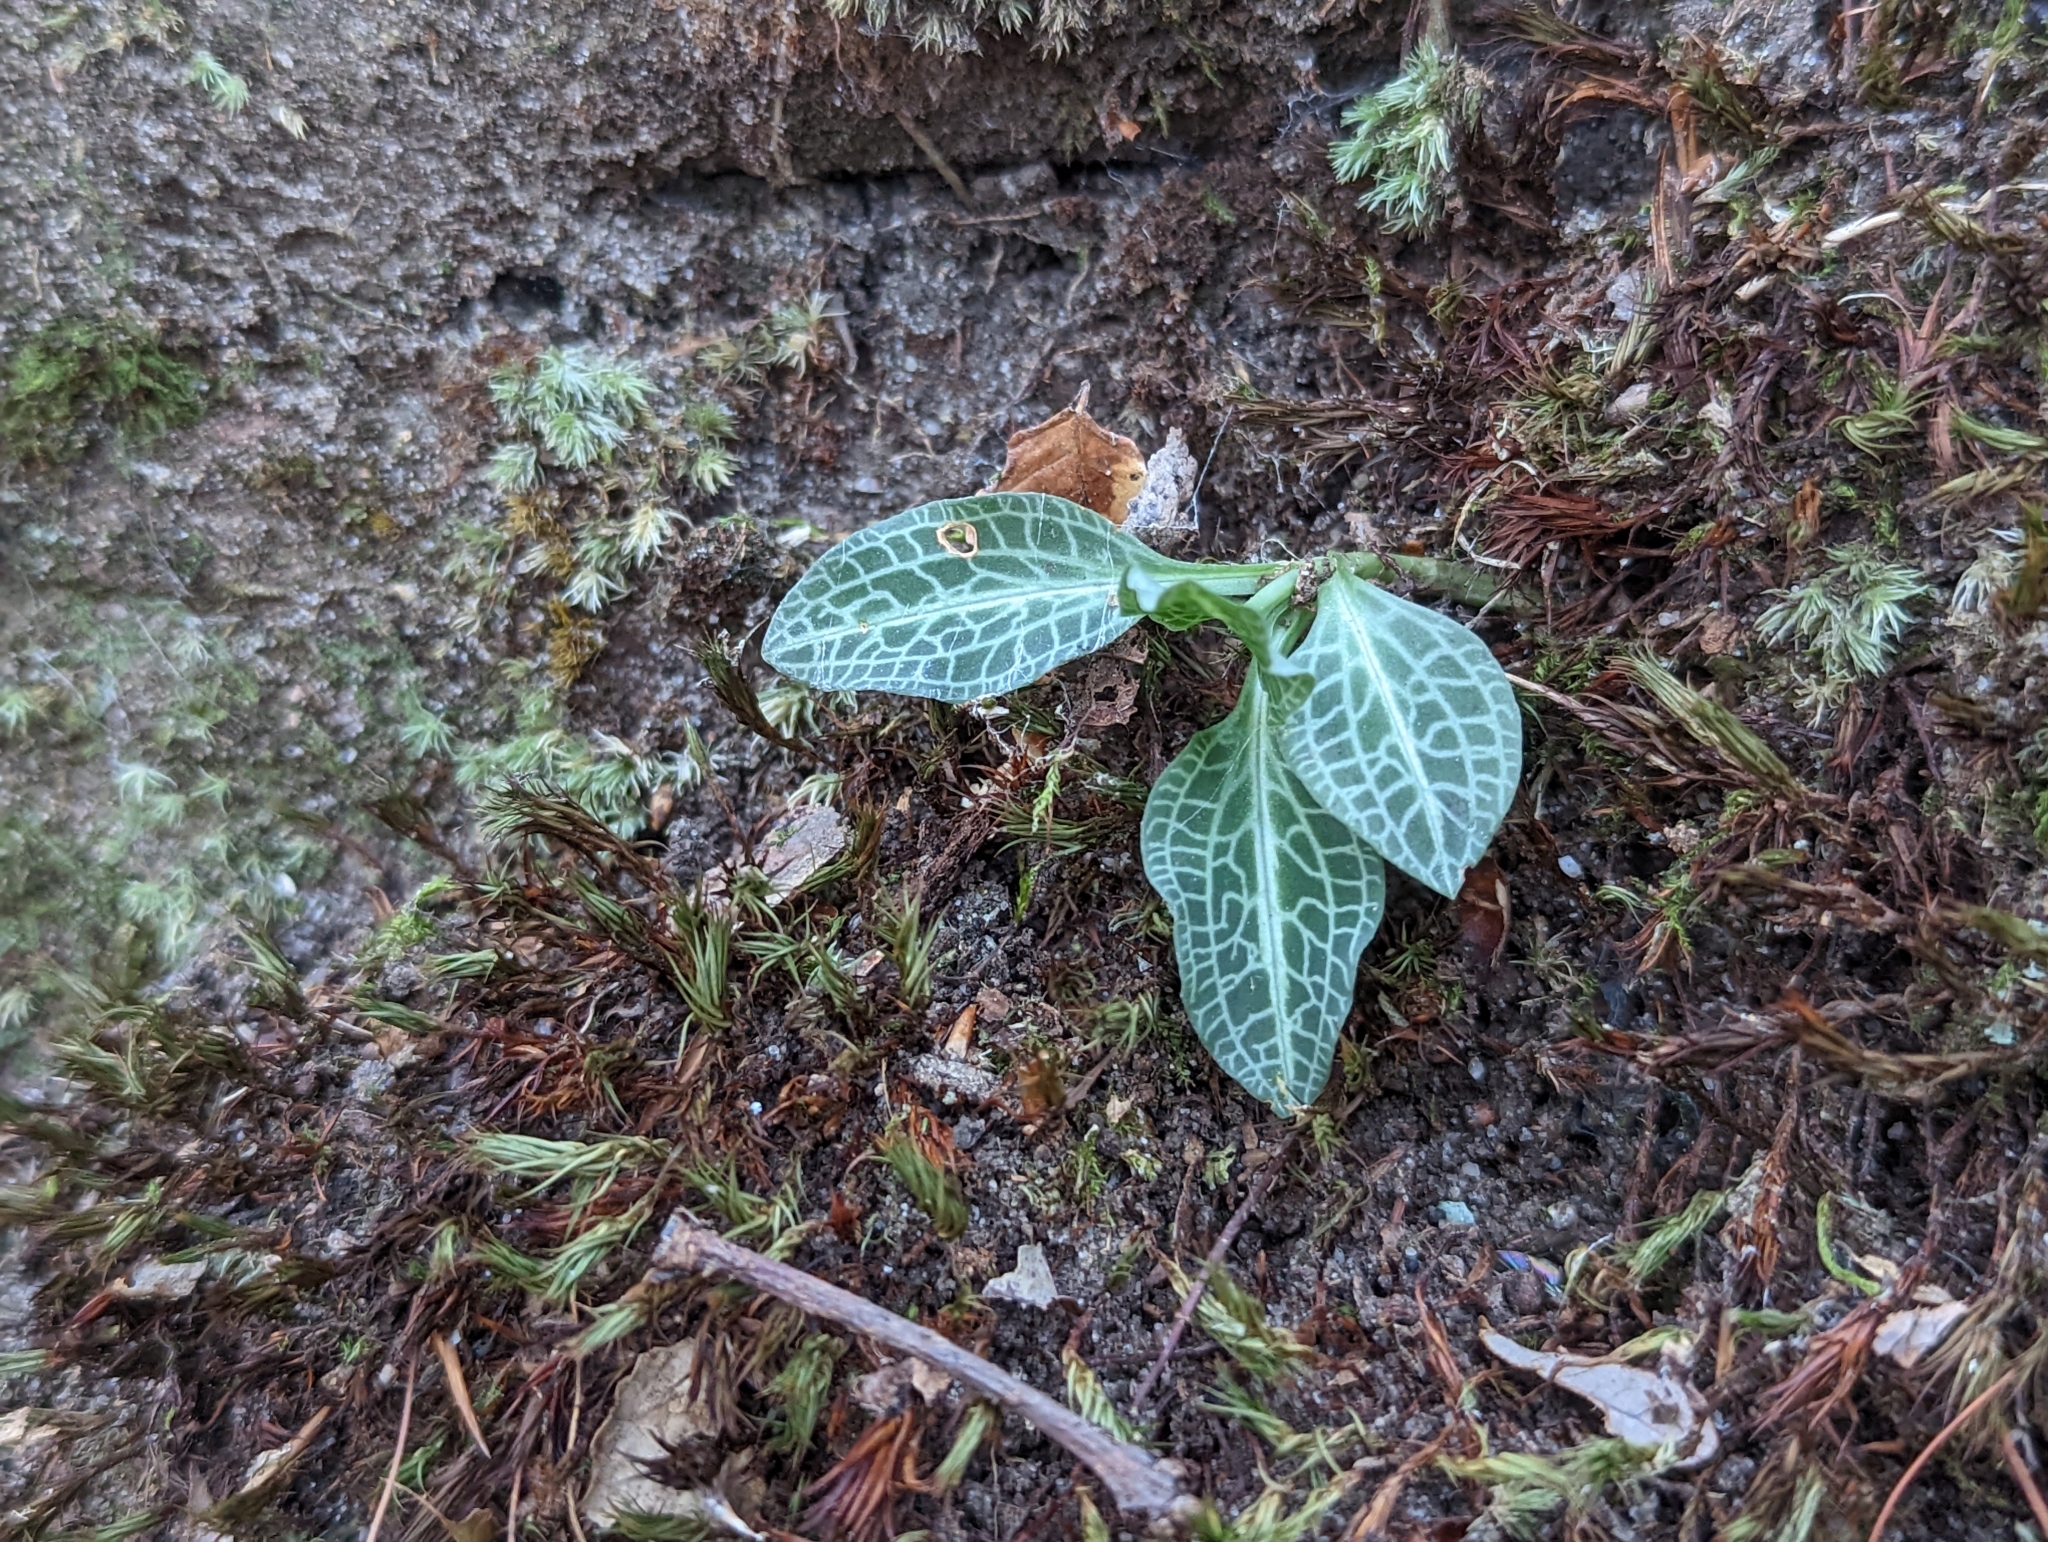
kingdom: Plantae
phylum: Tracheophyta
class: Liliopsida
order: Asparagales
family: Orchidaceae
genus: Goodyera
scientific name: Goodyera pubescens
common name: Downy rattlesnake-plantain
